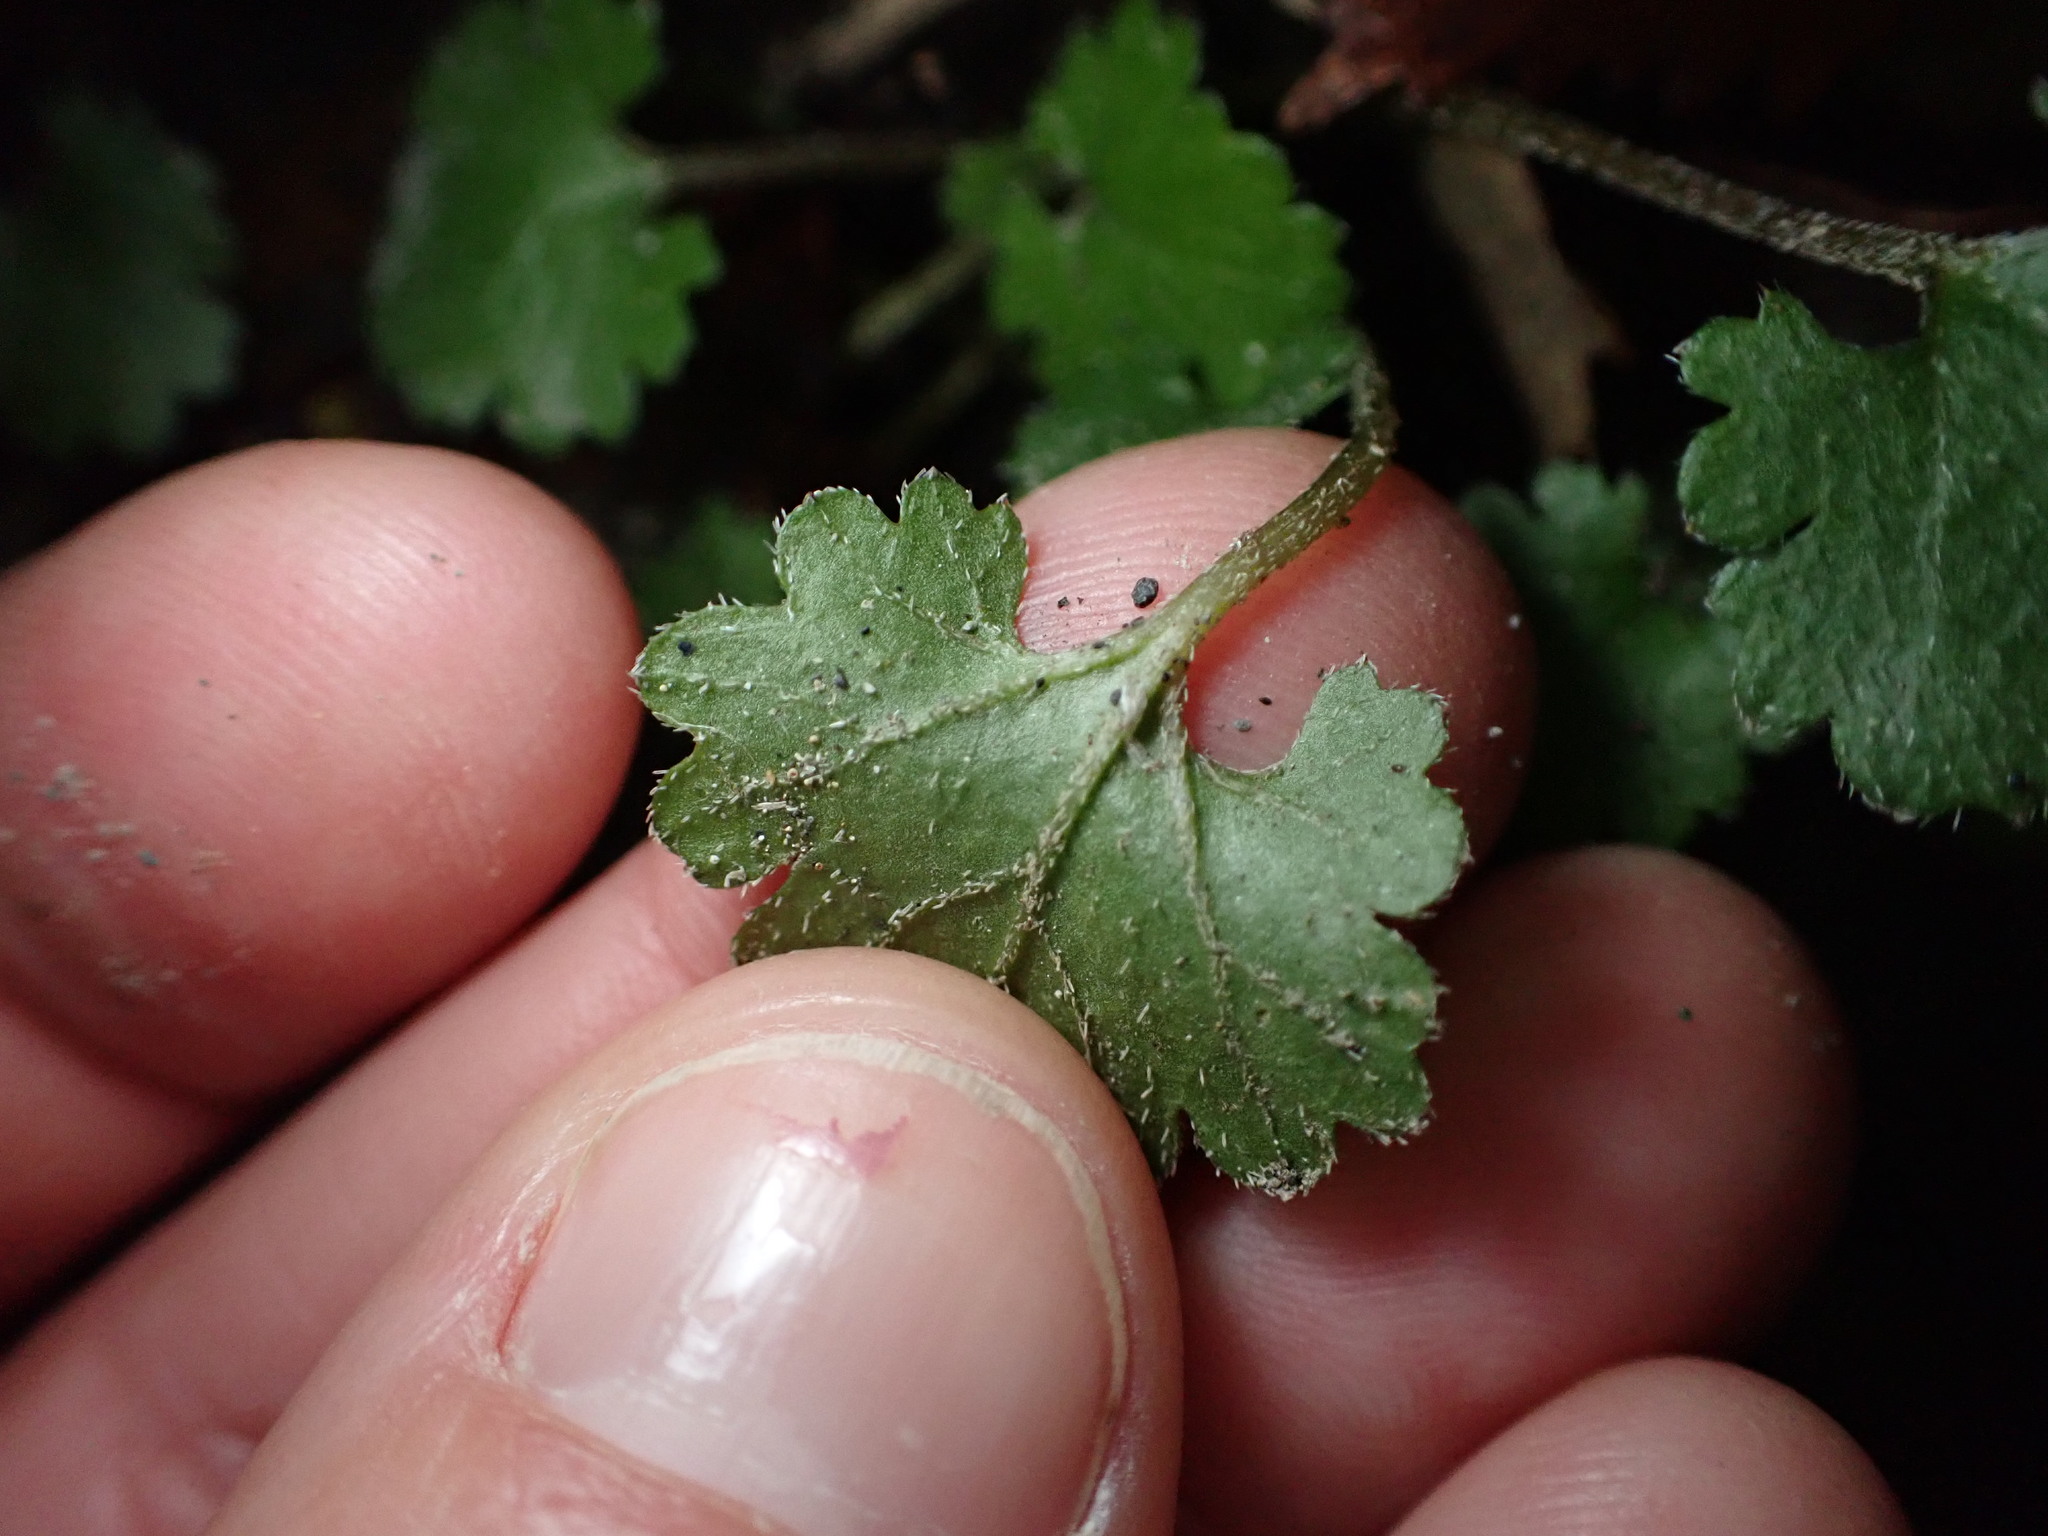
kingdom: Plantae
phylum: Tracheophyta
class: Magnoliopsida
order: Gunnerales
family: Gunneraceae
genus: Gunnera
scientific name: Gunnera monoica
